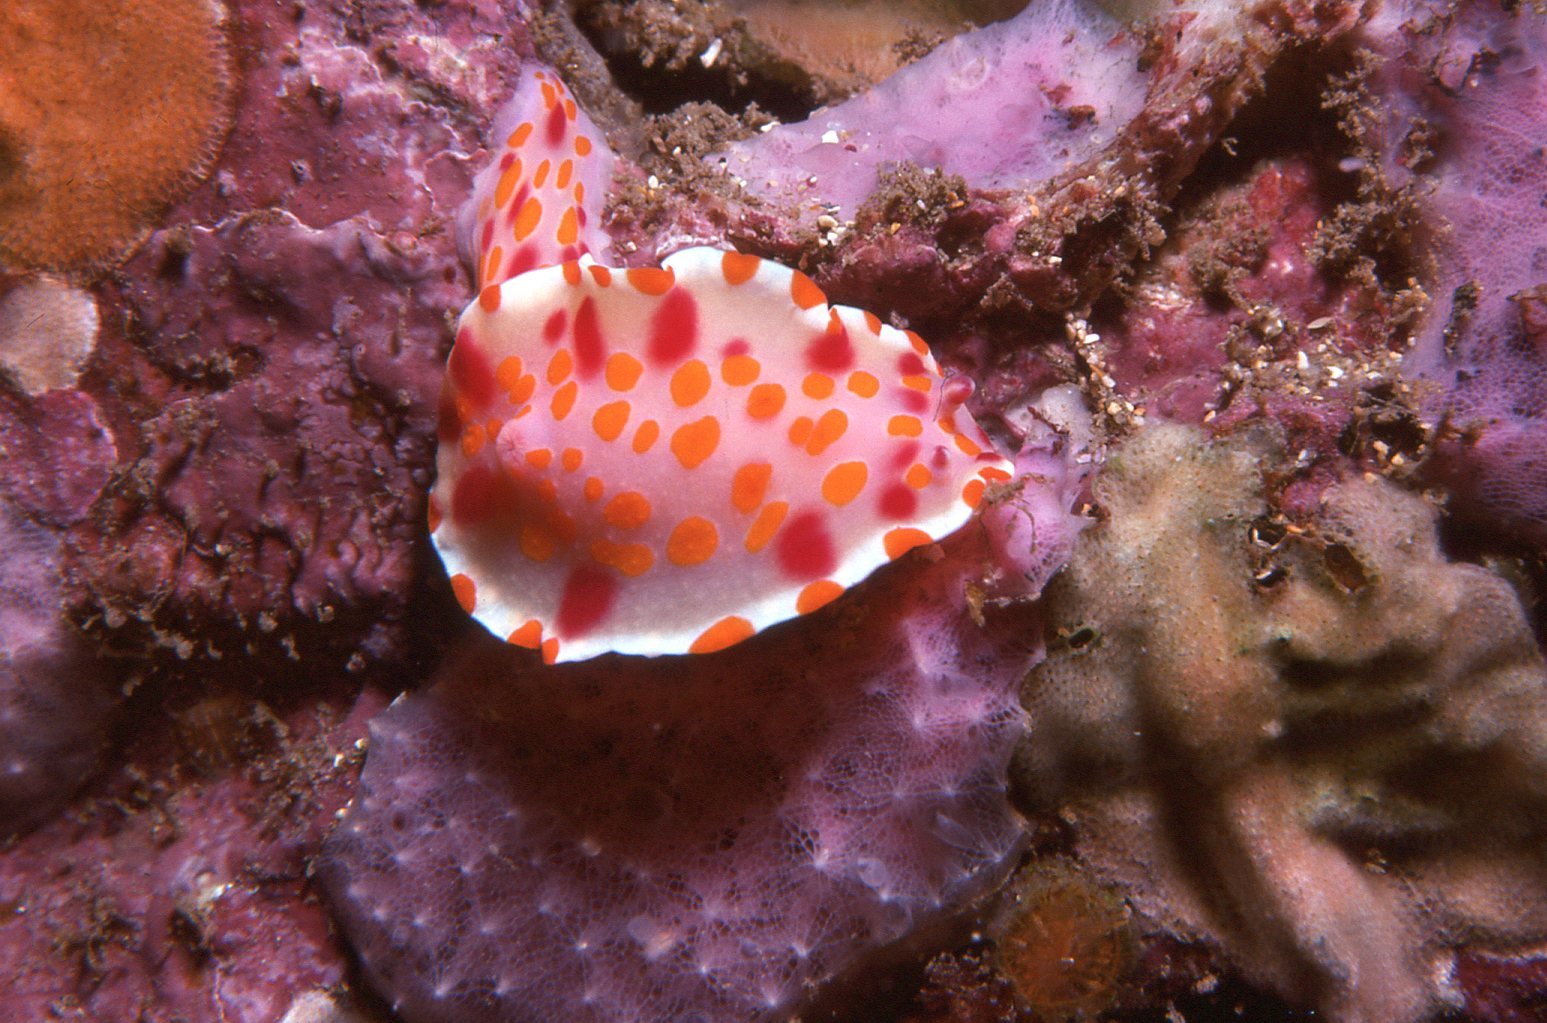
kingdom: Animalia
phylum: Mollusca
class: Gastropoda
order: Nudibranchia
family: Chromodorididae
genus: Ceratosoma
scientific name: Ceratosoma amoenum
